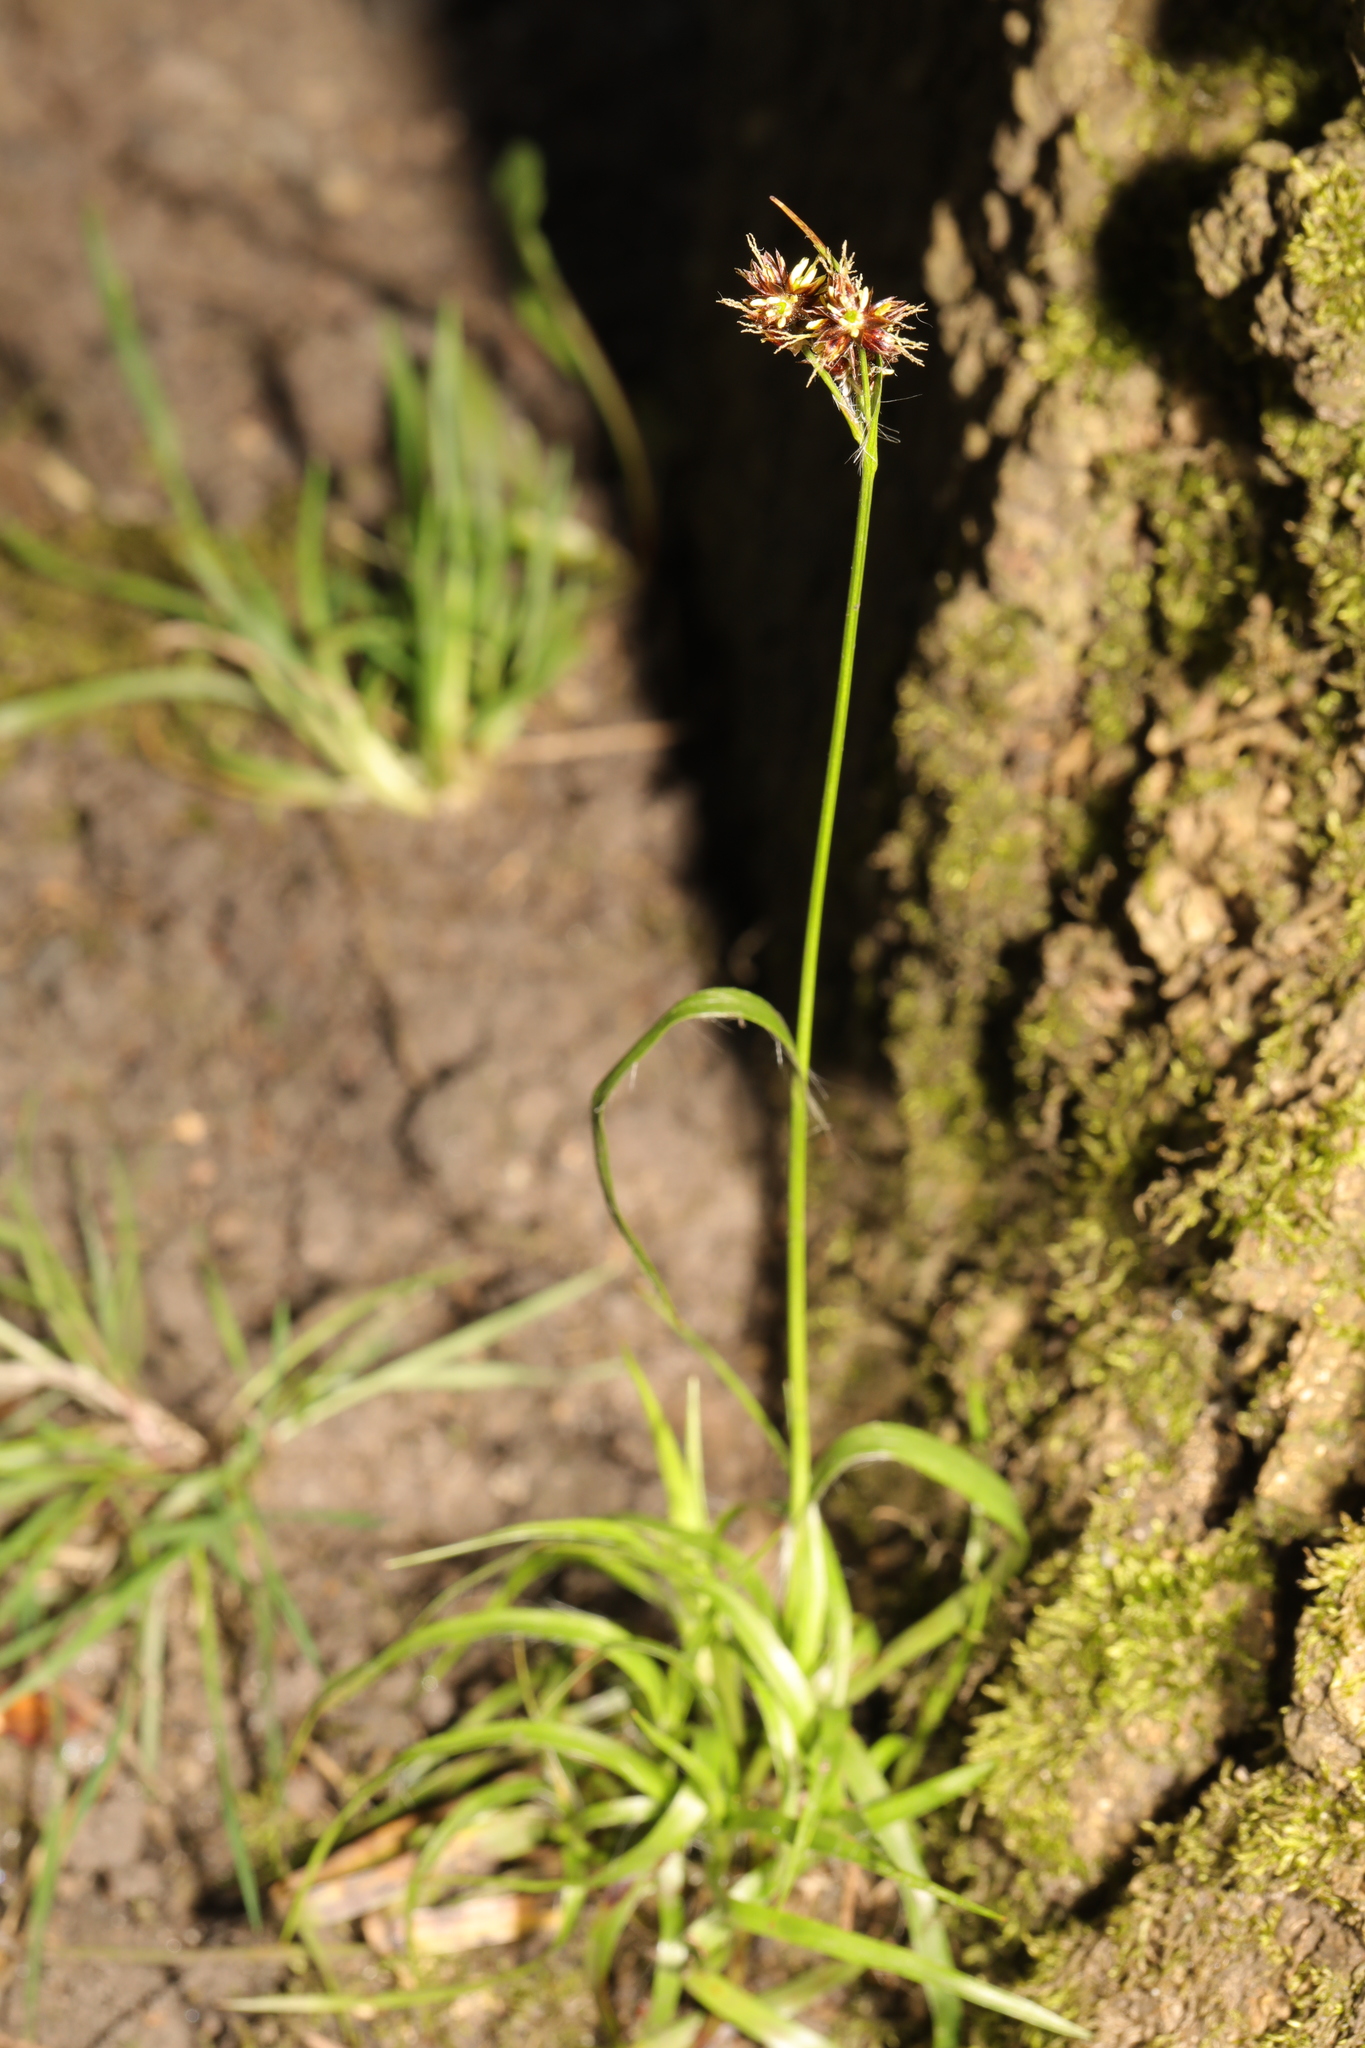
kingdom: Plantae
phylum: Tracheophyta
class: Liliopsida
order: Poales
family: Juncaceae
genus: Luzula
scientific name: Luzula campestris
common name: Field wood-rush
